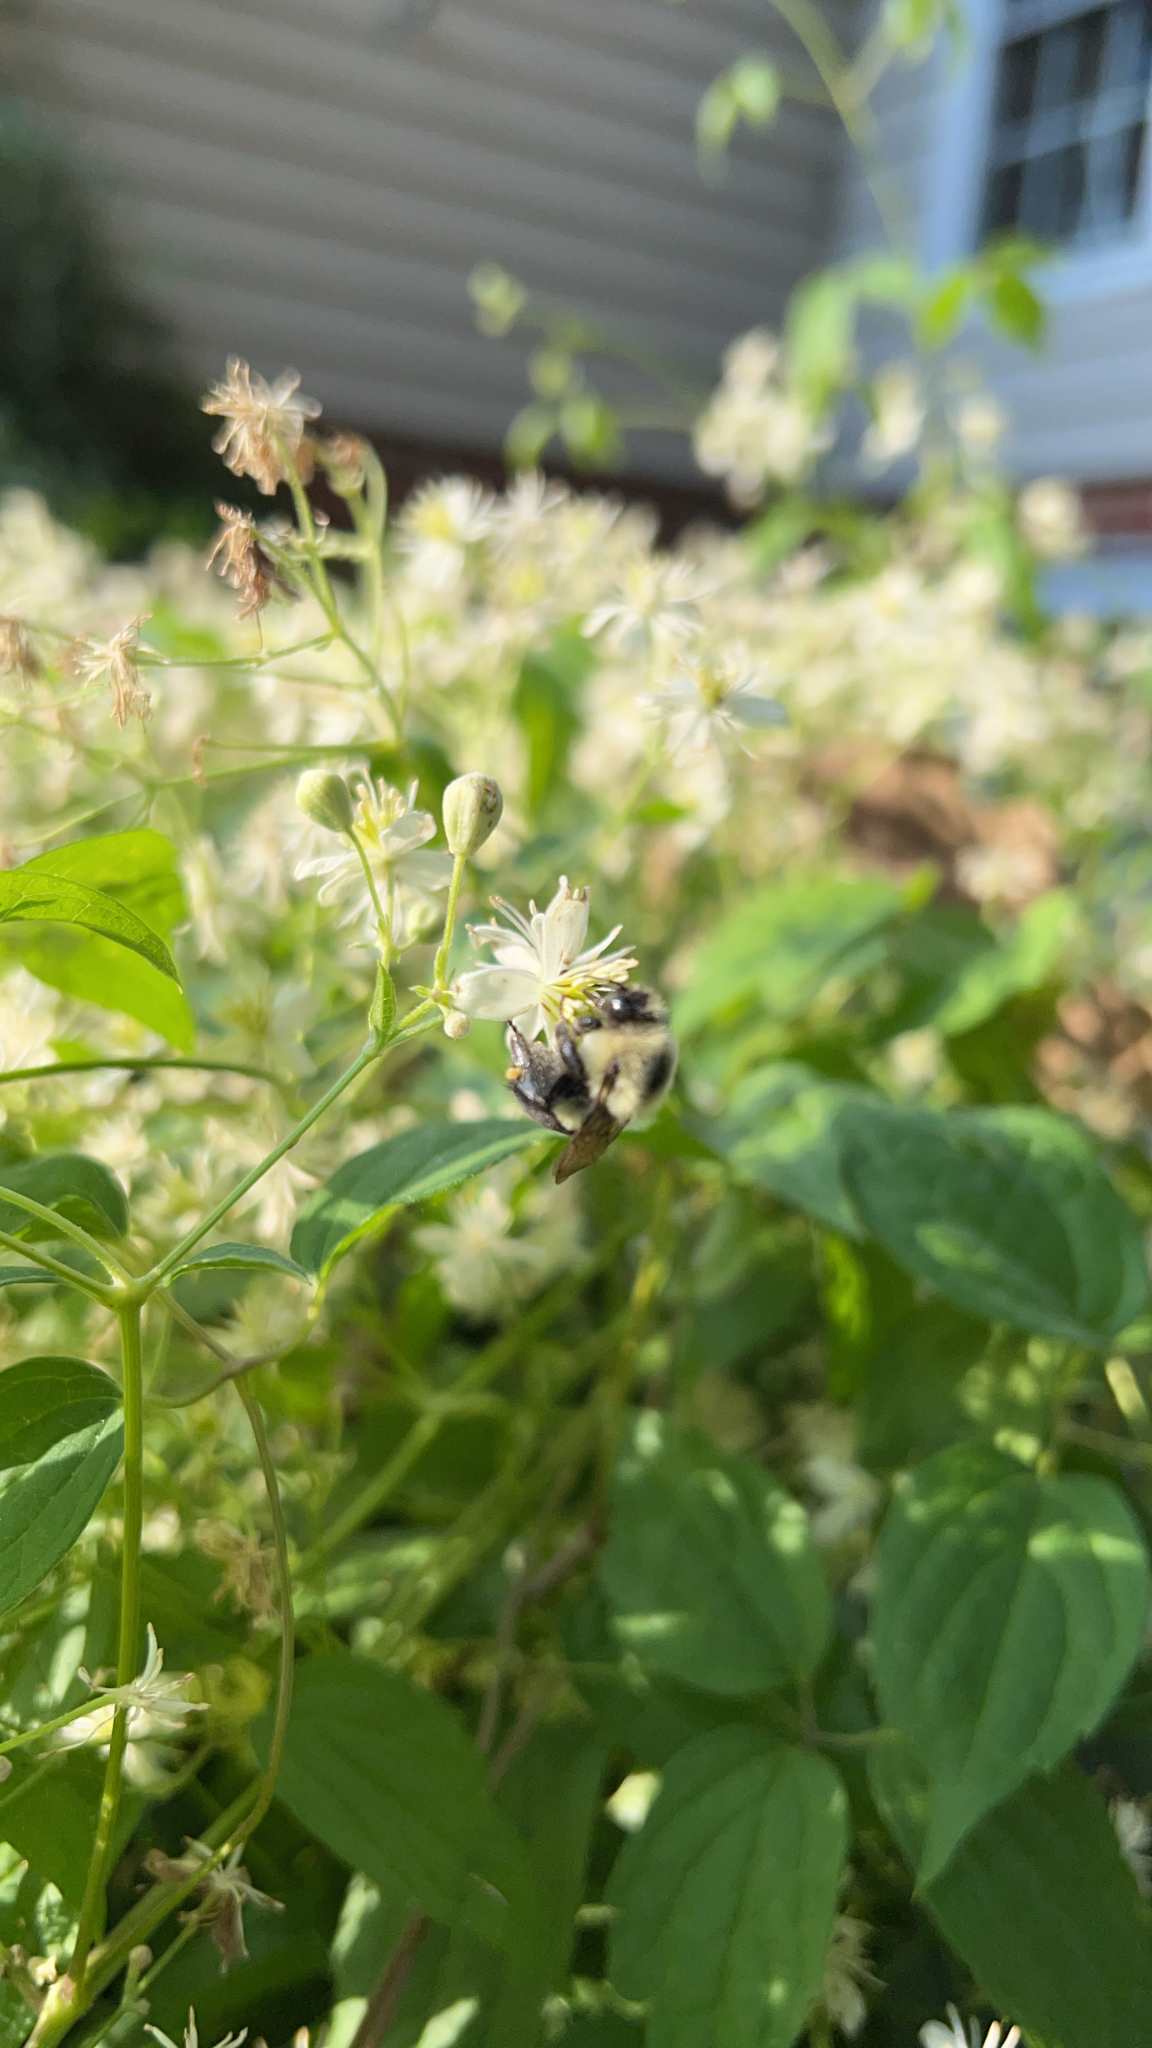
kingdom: Animalia
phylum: Arthropoda
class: Insecta
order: Hymenoptera
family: Apidae
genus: Bombus
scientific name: Bombus impatiens
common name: Common eastern bumble bee
